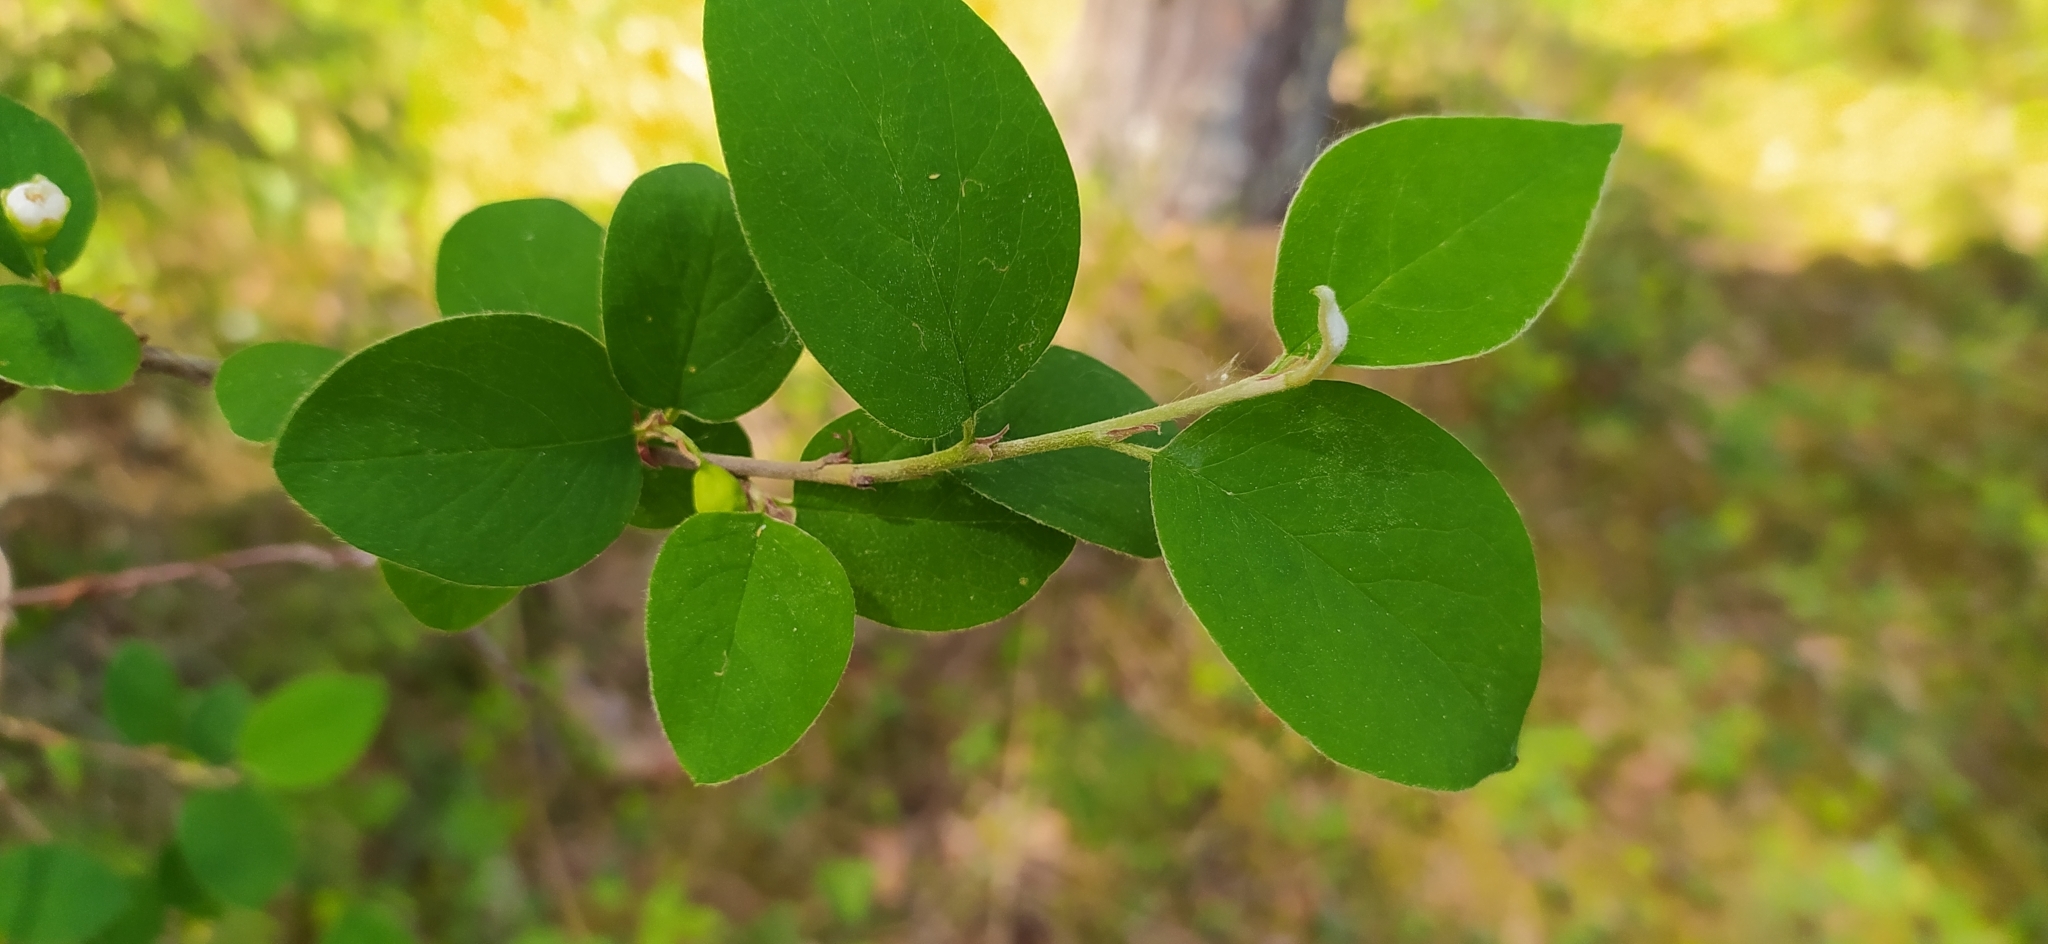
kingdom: Plantae
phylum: Tracheophyta
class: Magnoliopsida
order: Rosales
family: Rosaceae
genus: Cotoneaster
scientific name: Cotoneaster melanocarpus
